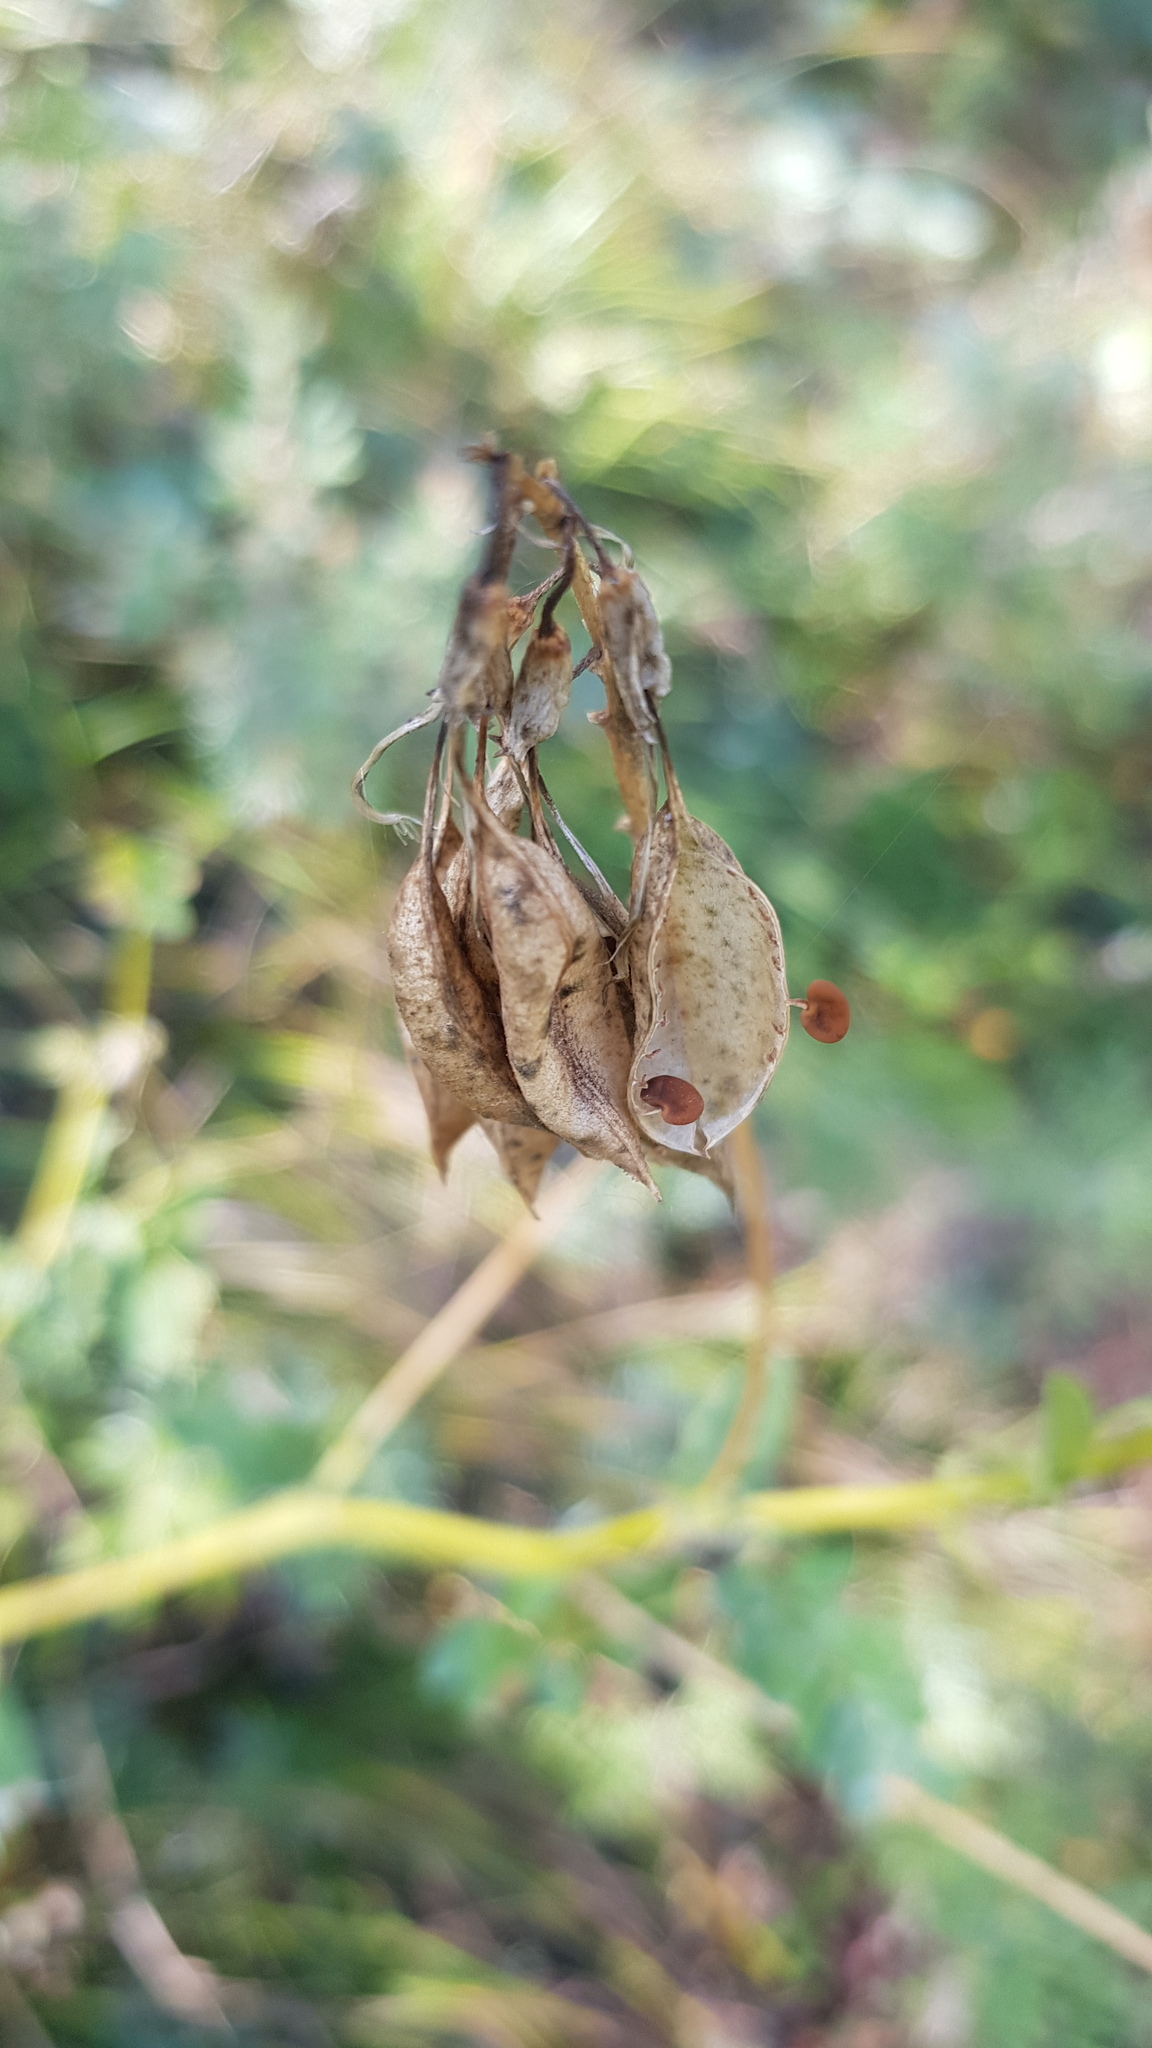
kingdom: Plantae
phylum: Tracheophyta
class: Magnoliopsida
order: Fabales
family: Fabaceae
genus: Astragalus
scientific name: Astragalus frigidus
